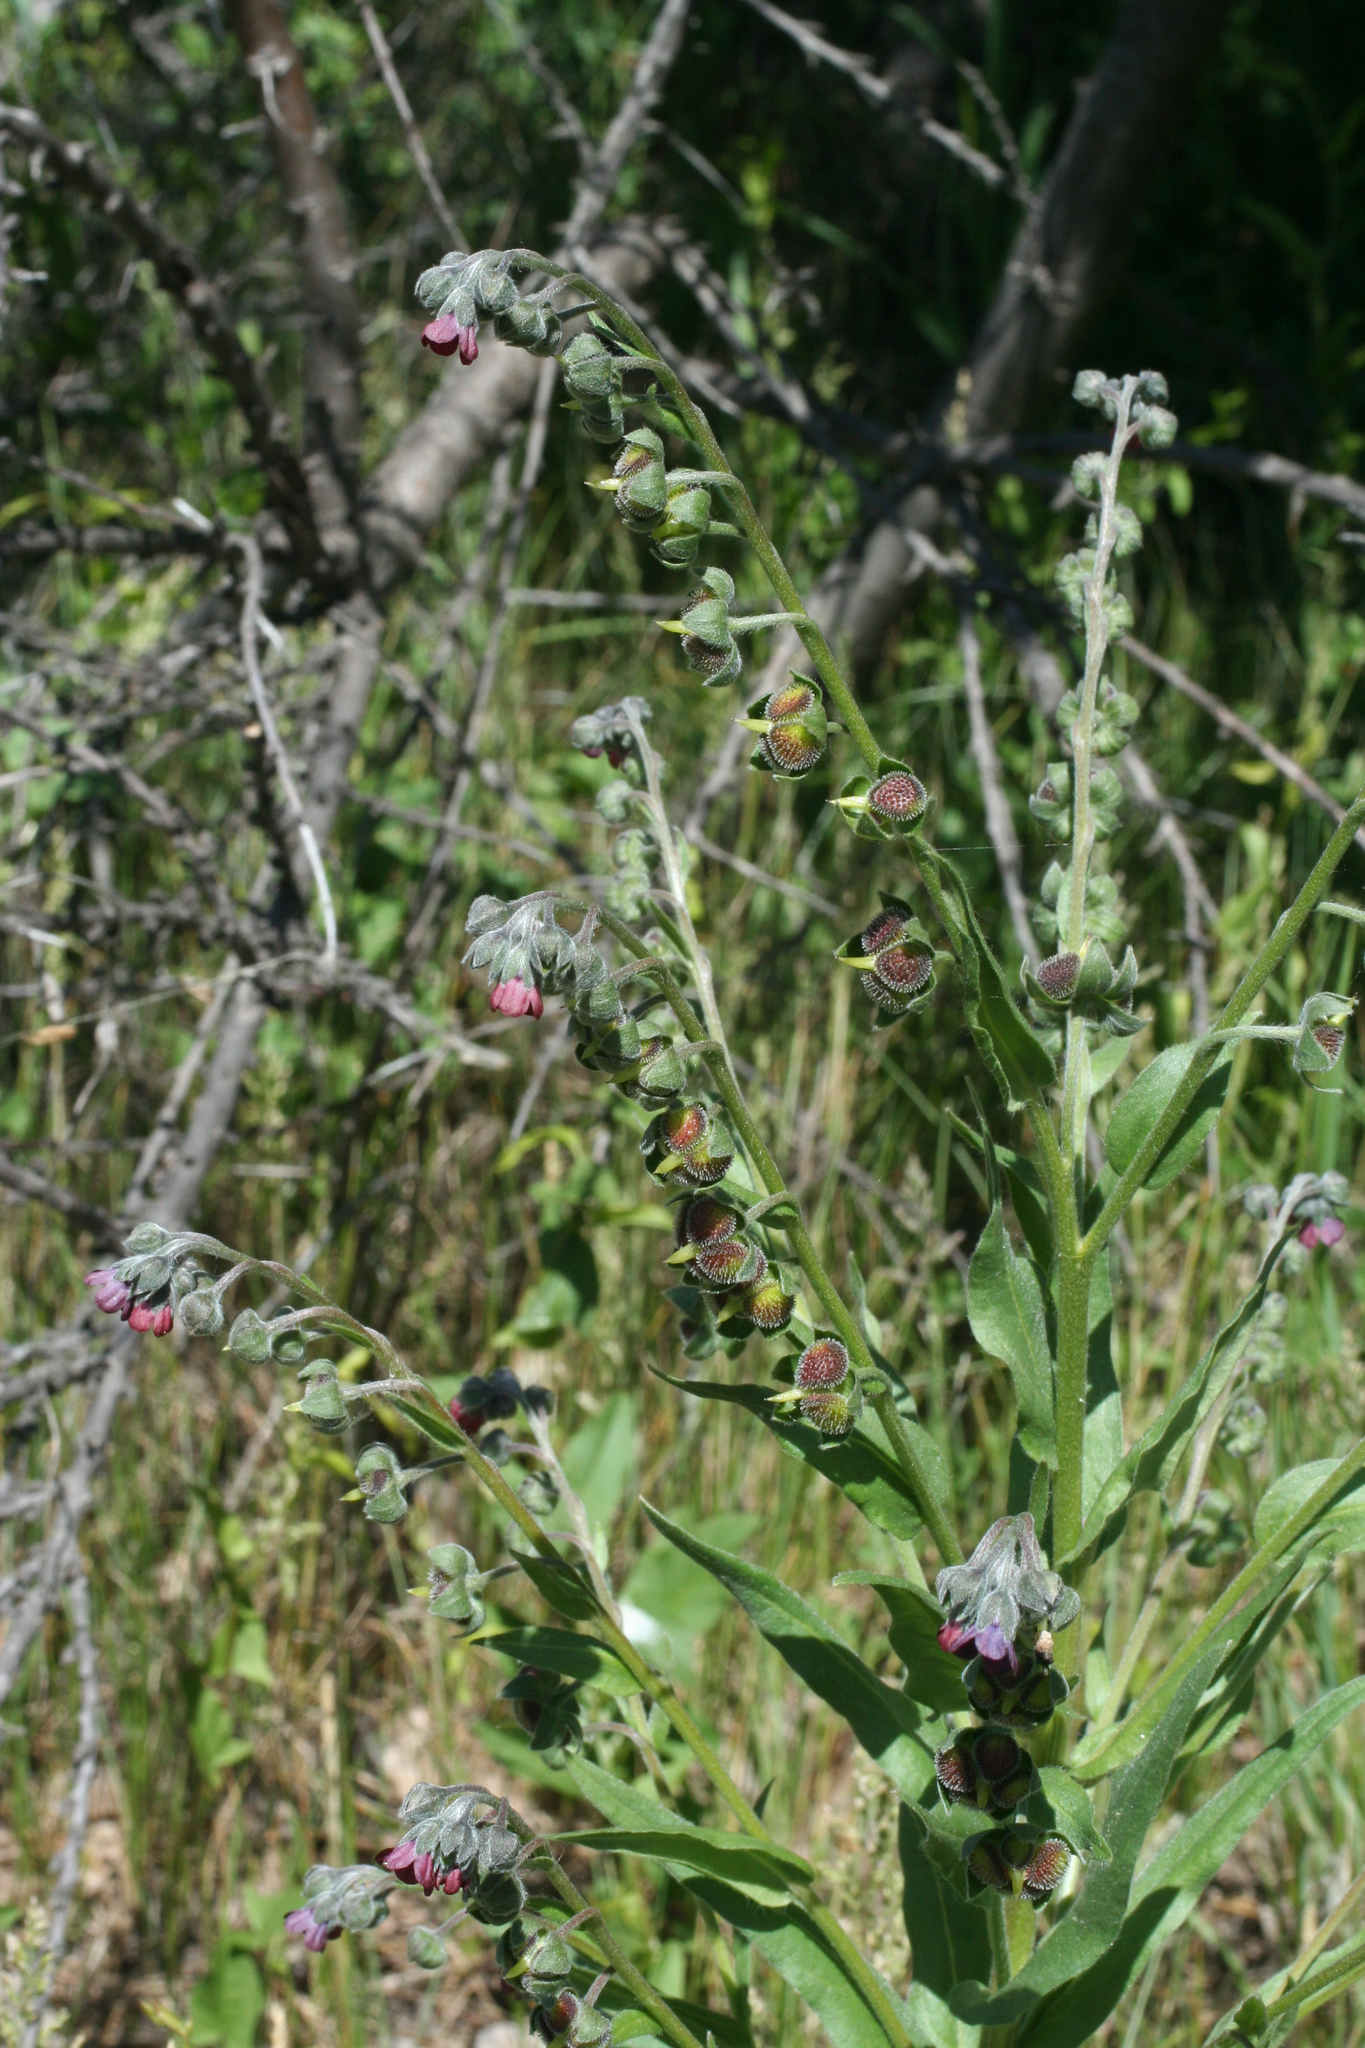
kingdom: Plantae
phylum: Tracheophyta
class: Magnoliopsida
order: Boraginales
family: Boraginaceae
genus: Cynoglossum
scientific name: Cynoglossum officinale
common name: Hound's-tongue
